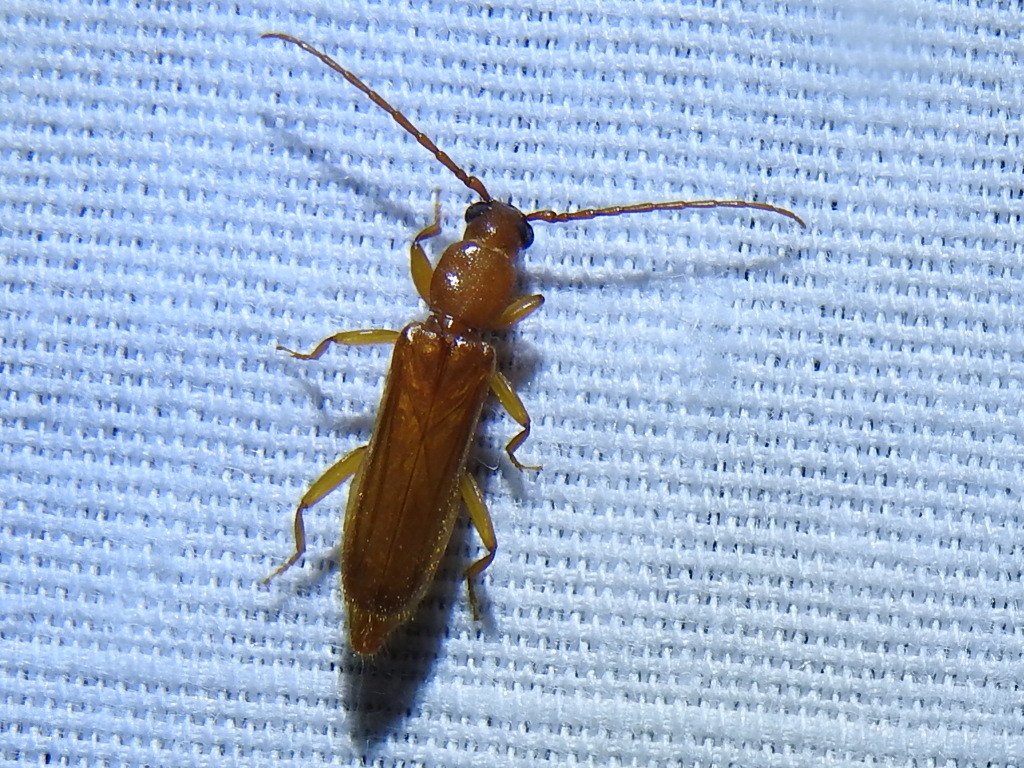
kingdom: Animalia
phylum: Arthropoda
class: Insecta
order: Coleoptera
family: Cerambycidae
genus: Smodicum
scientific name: Smodicum cucujiforme
